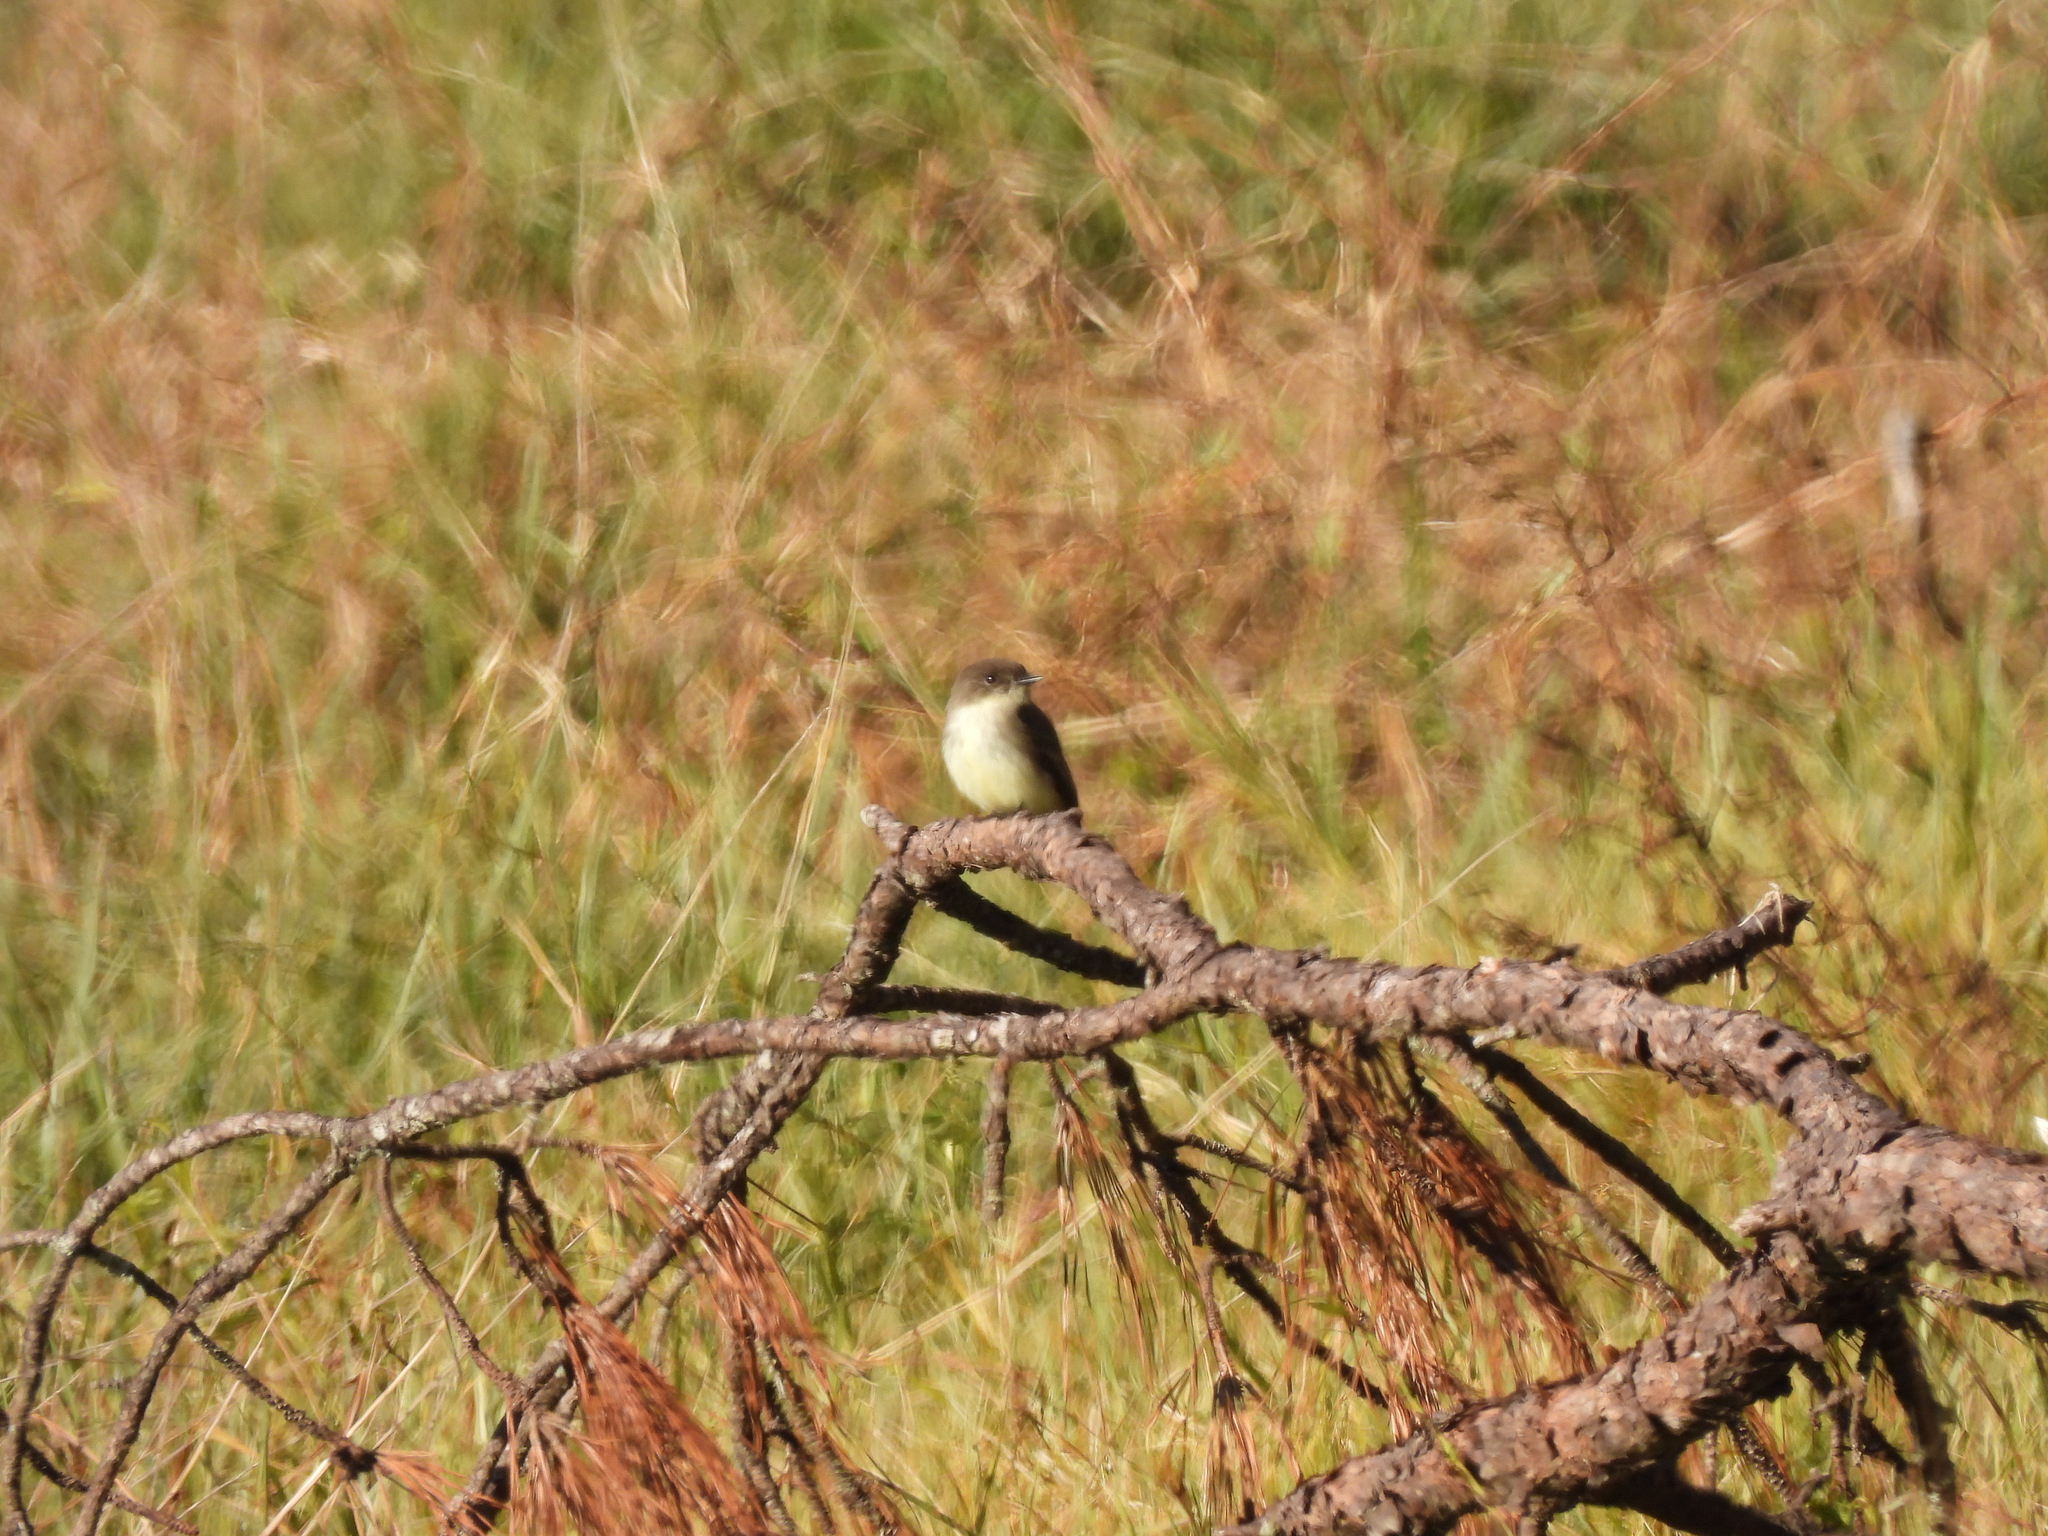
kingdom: Animalia
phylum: Chordata
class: Aves
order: Passeriformes
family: Tyrannidae
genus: Sayornis
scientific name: Sayornis phoebe
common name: Eastern phoebe
